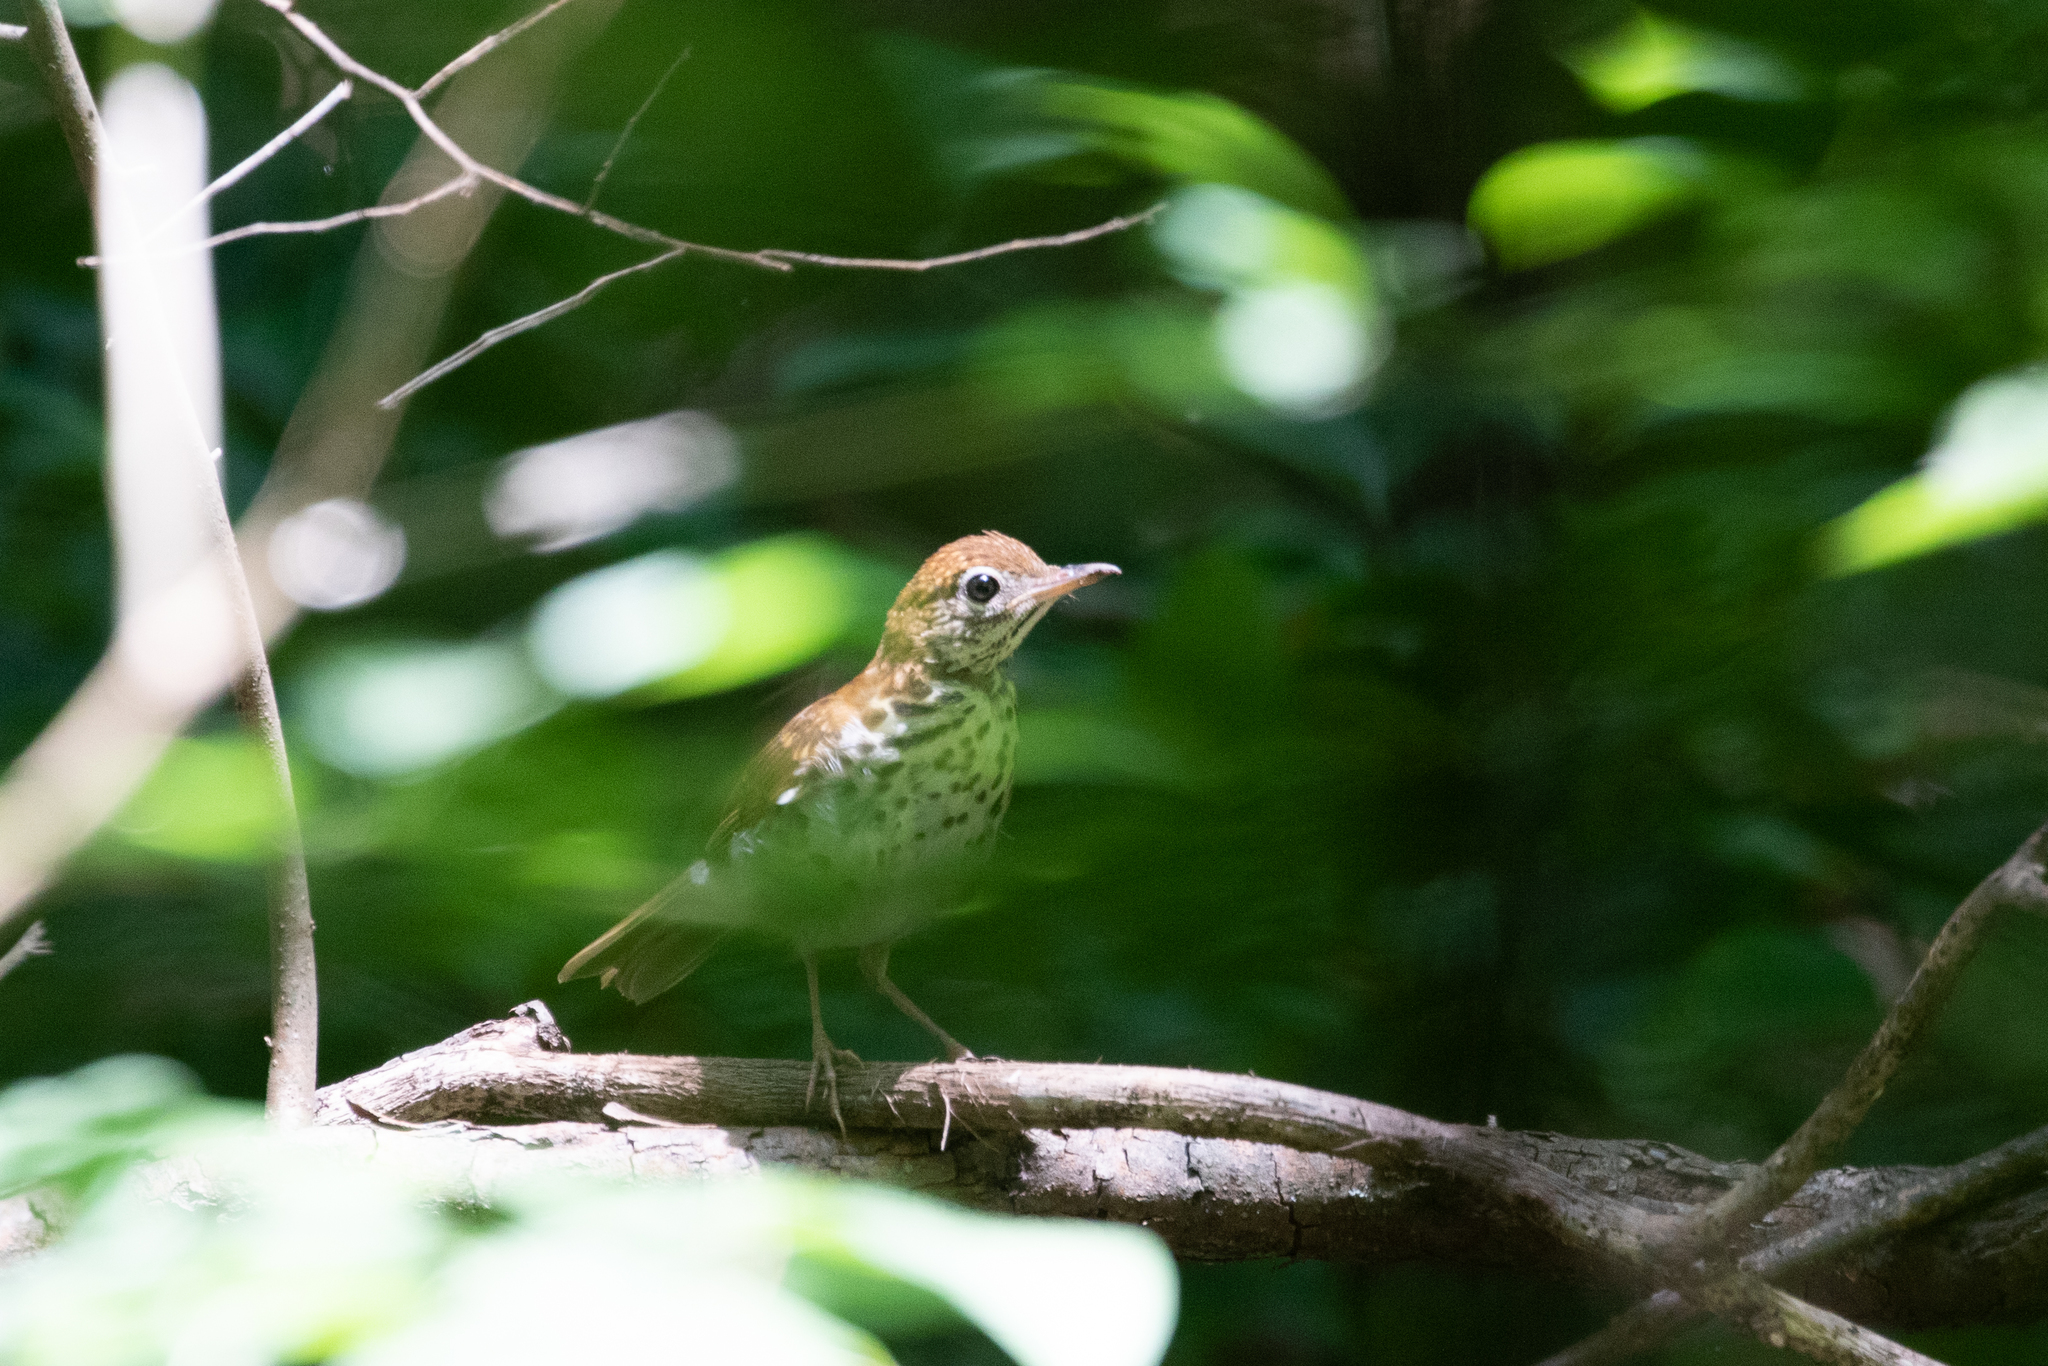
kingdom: Animalia
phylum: Chordata
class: Aves
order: Passeriformes
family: Turdidae
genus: Hylocichla
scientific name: Hylocichla mustelina
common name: Wood thrush
